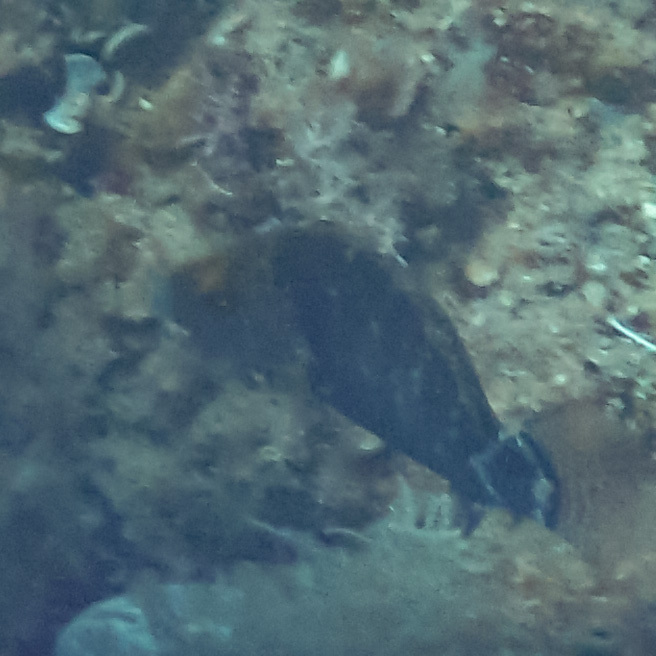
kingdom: Animalia
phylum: Chordata
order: Perciformes
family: Labridae
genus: Symphodus
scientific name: Symphodus mediterraneus
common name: Axillary wrasse
